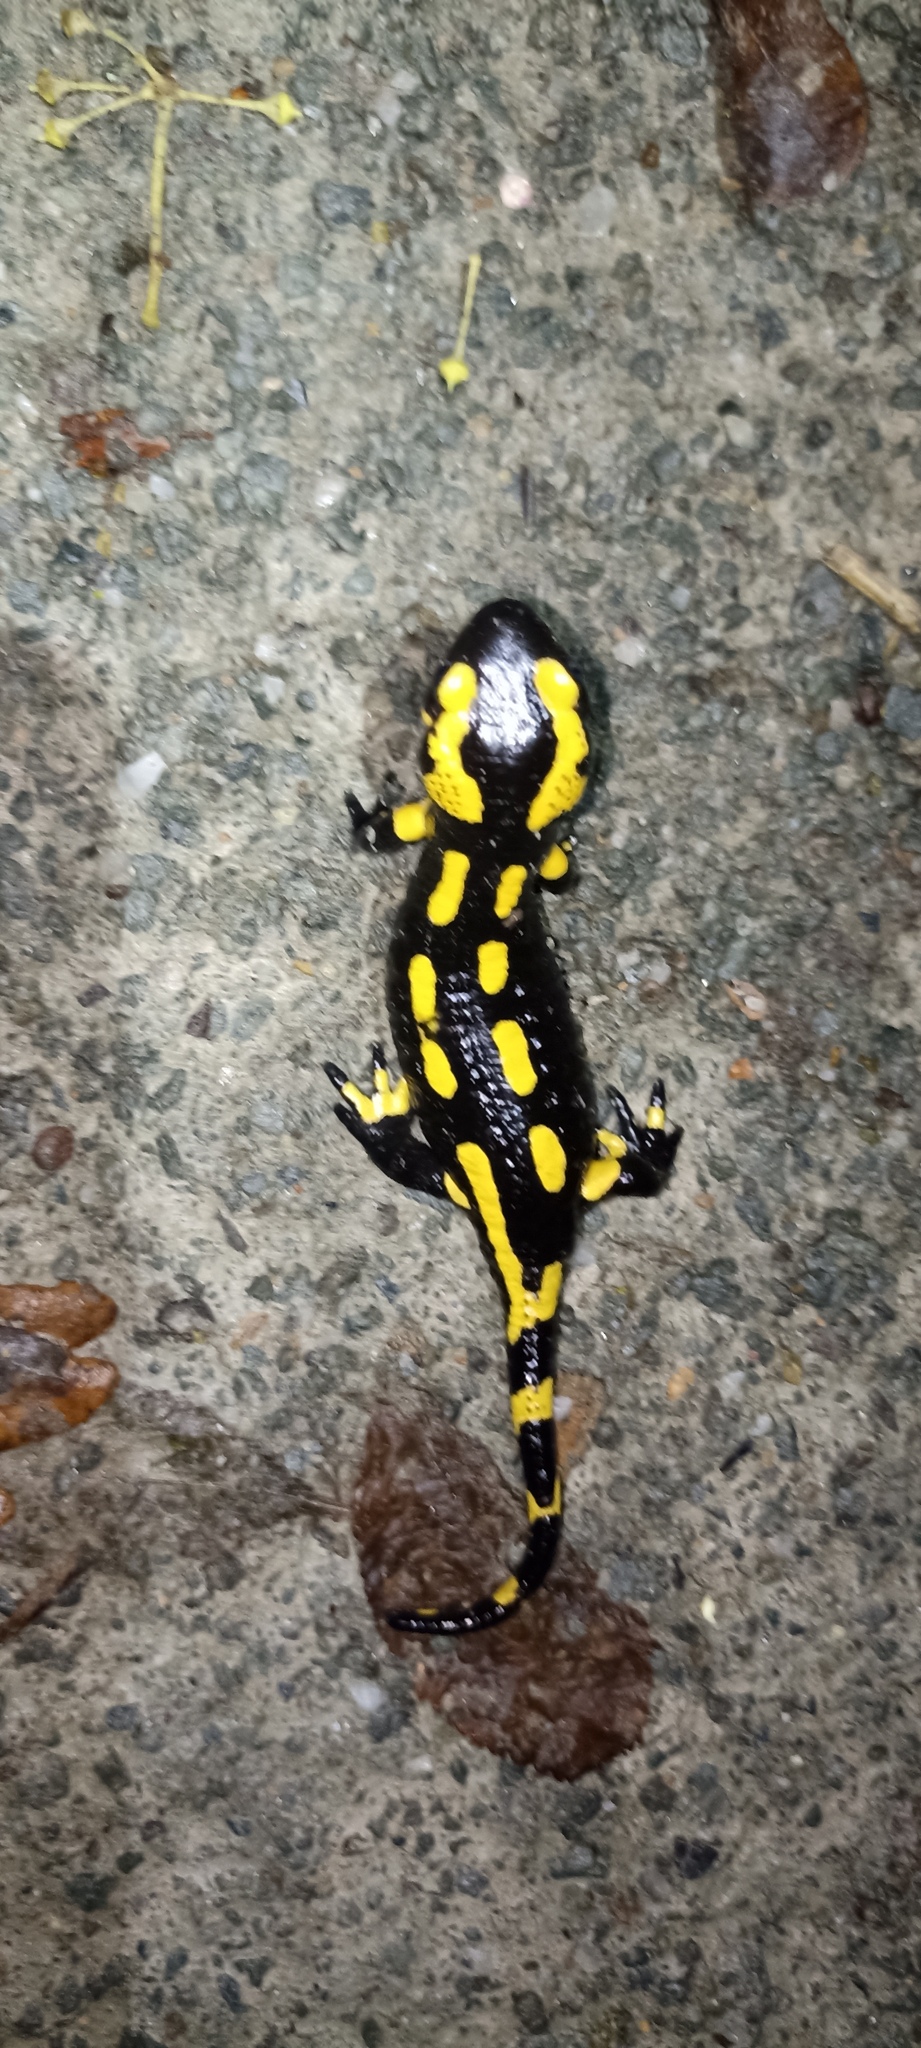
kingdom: Animalia
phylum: Chordata
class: Amphibia
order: Caudata
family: Salamandridae
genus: Salamandra
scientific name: Salamandra salamandra
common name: Fire salamander
